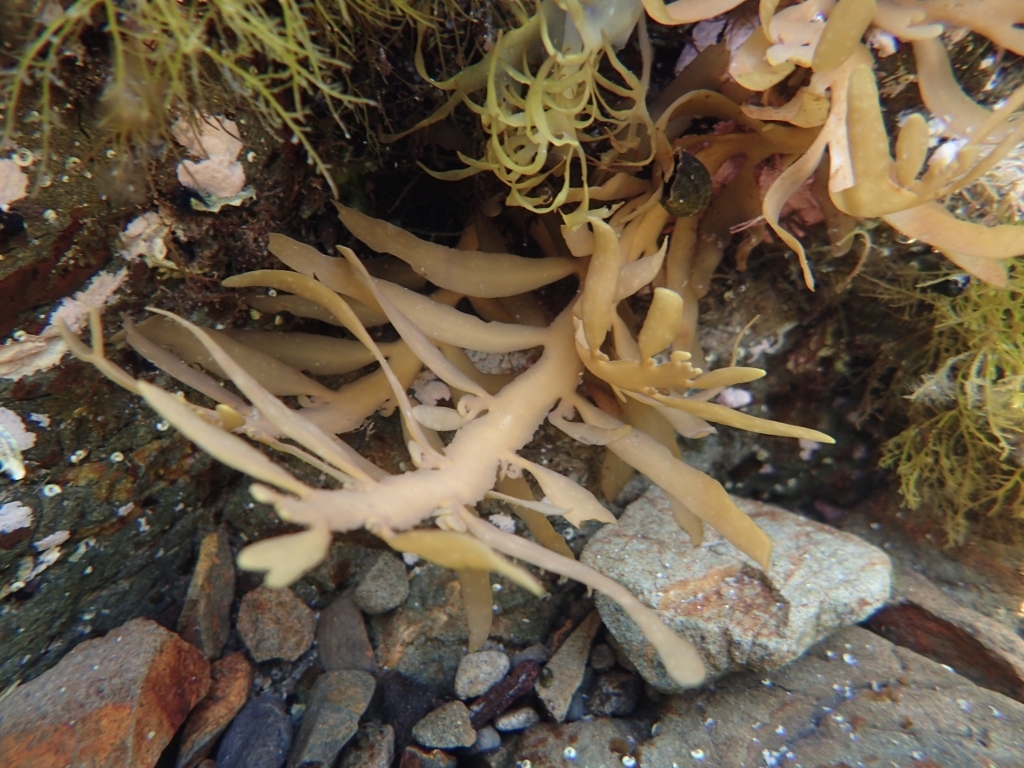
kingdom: Chromista
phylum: Ochrophyta
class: Phaeophyceae
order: Fucales
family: Sargassaceae
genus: Carpophyllum
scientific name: Carpophyllum maschalocarpum
